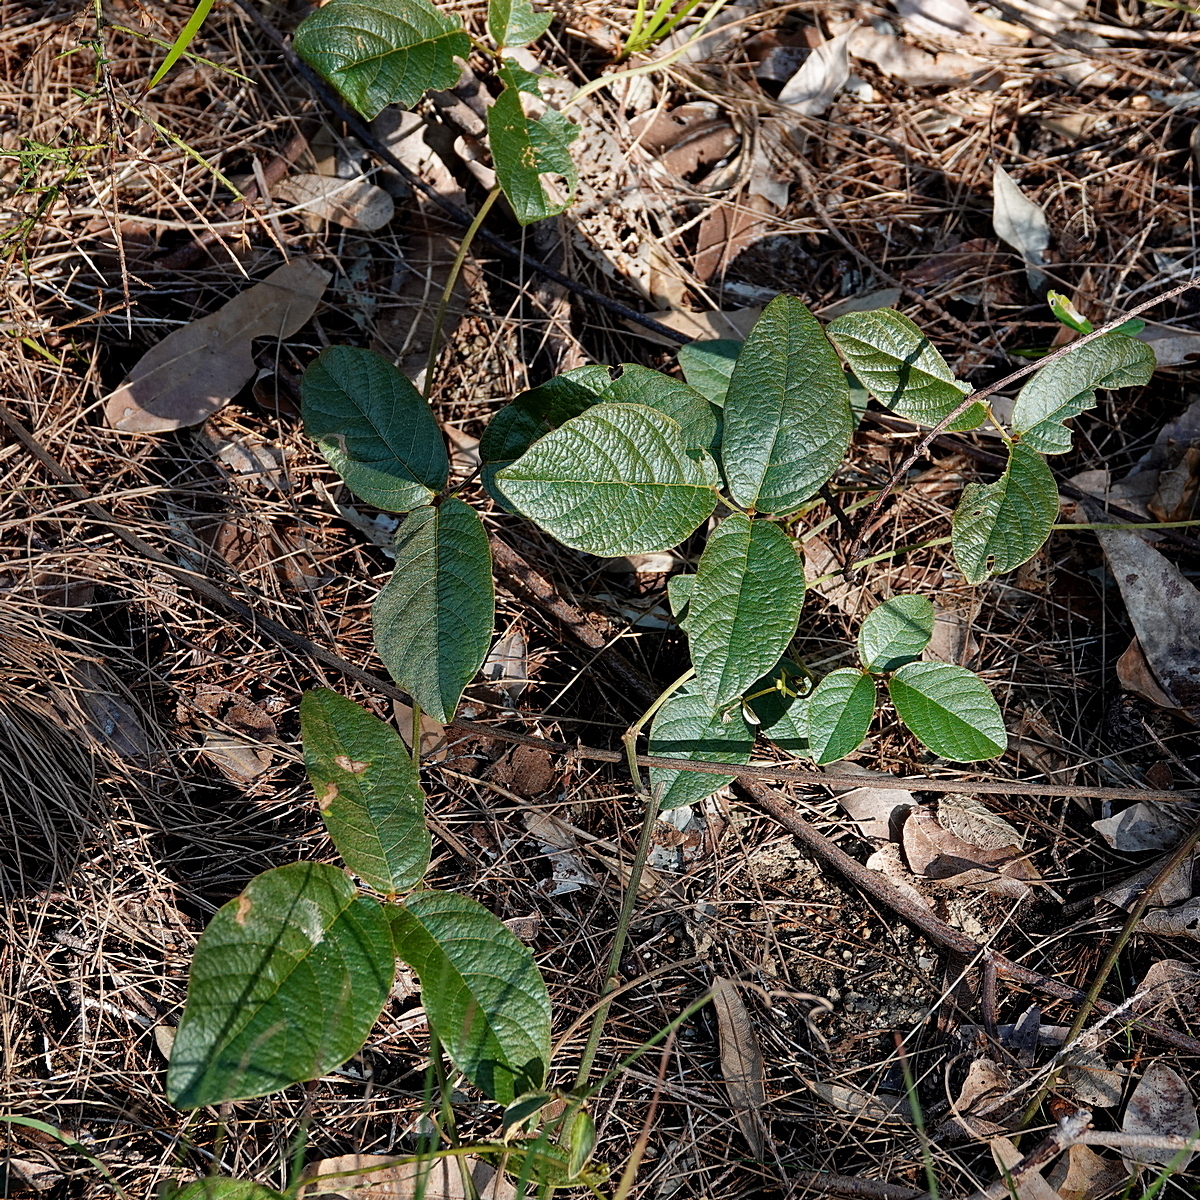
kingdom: Plantae
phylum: Tracheophyta
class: Magnoliopsida
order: Fabales
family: Fabaceae
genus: Kennedia
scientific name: Kennedia rubicunda
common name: Red kennedy-pea
